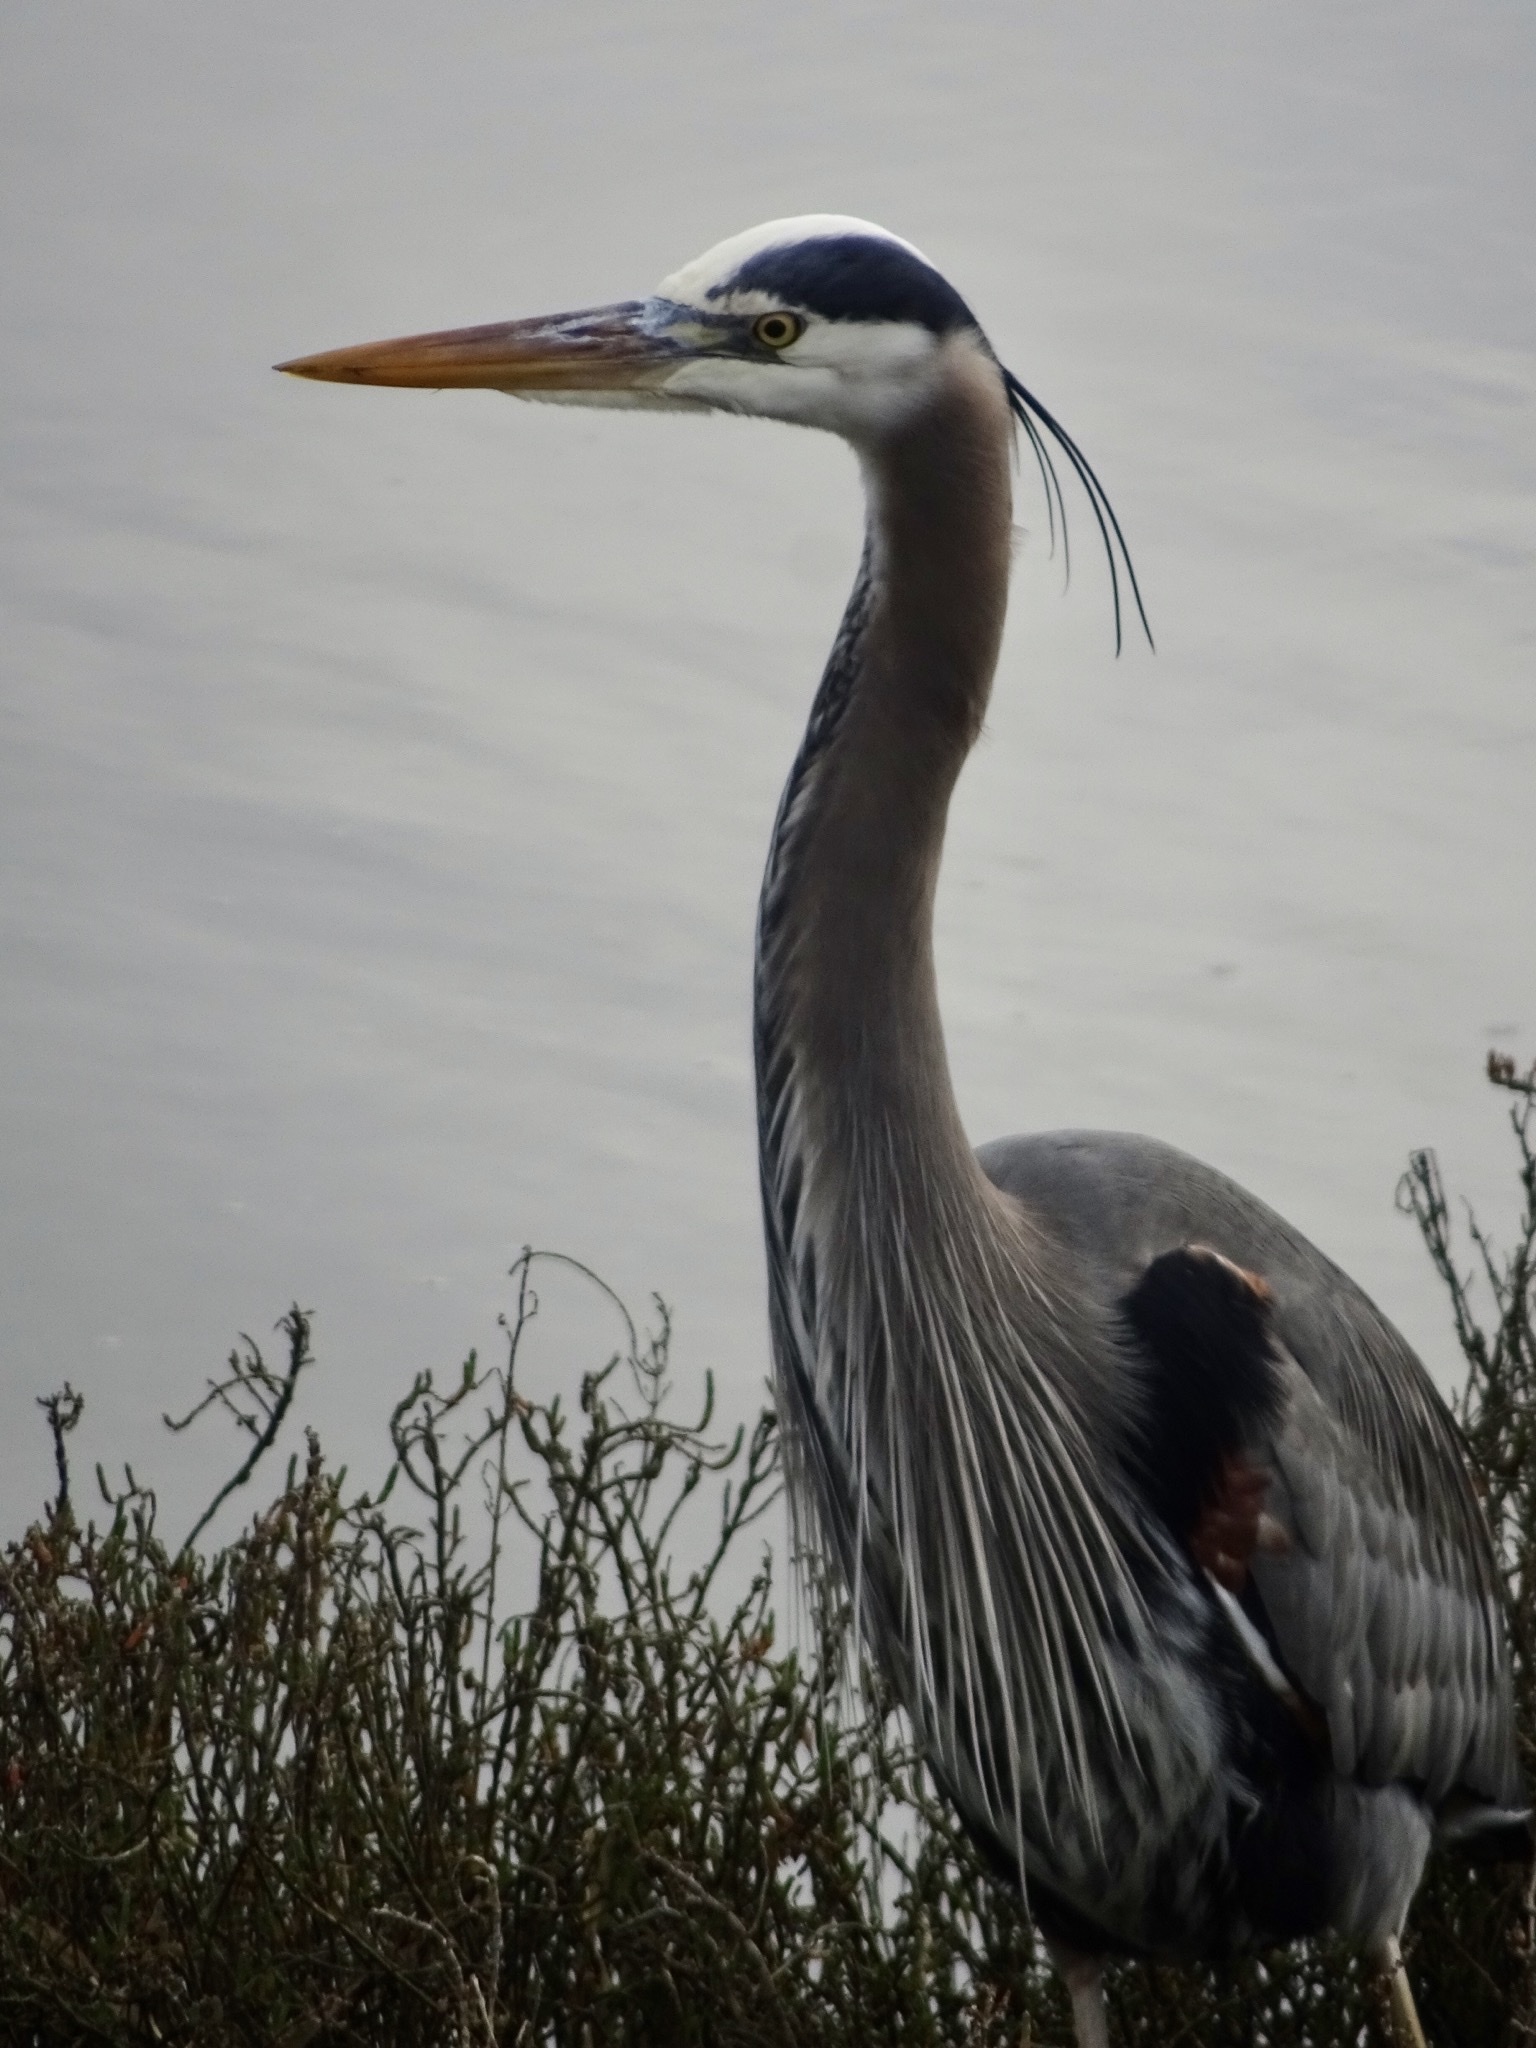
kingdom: Animalia
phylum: Chordata
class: Aves
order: Pelecaniformes
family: Ardeidae
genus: Ardea
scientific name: Ardea herodias
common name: Great blue heron
